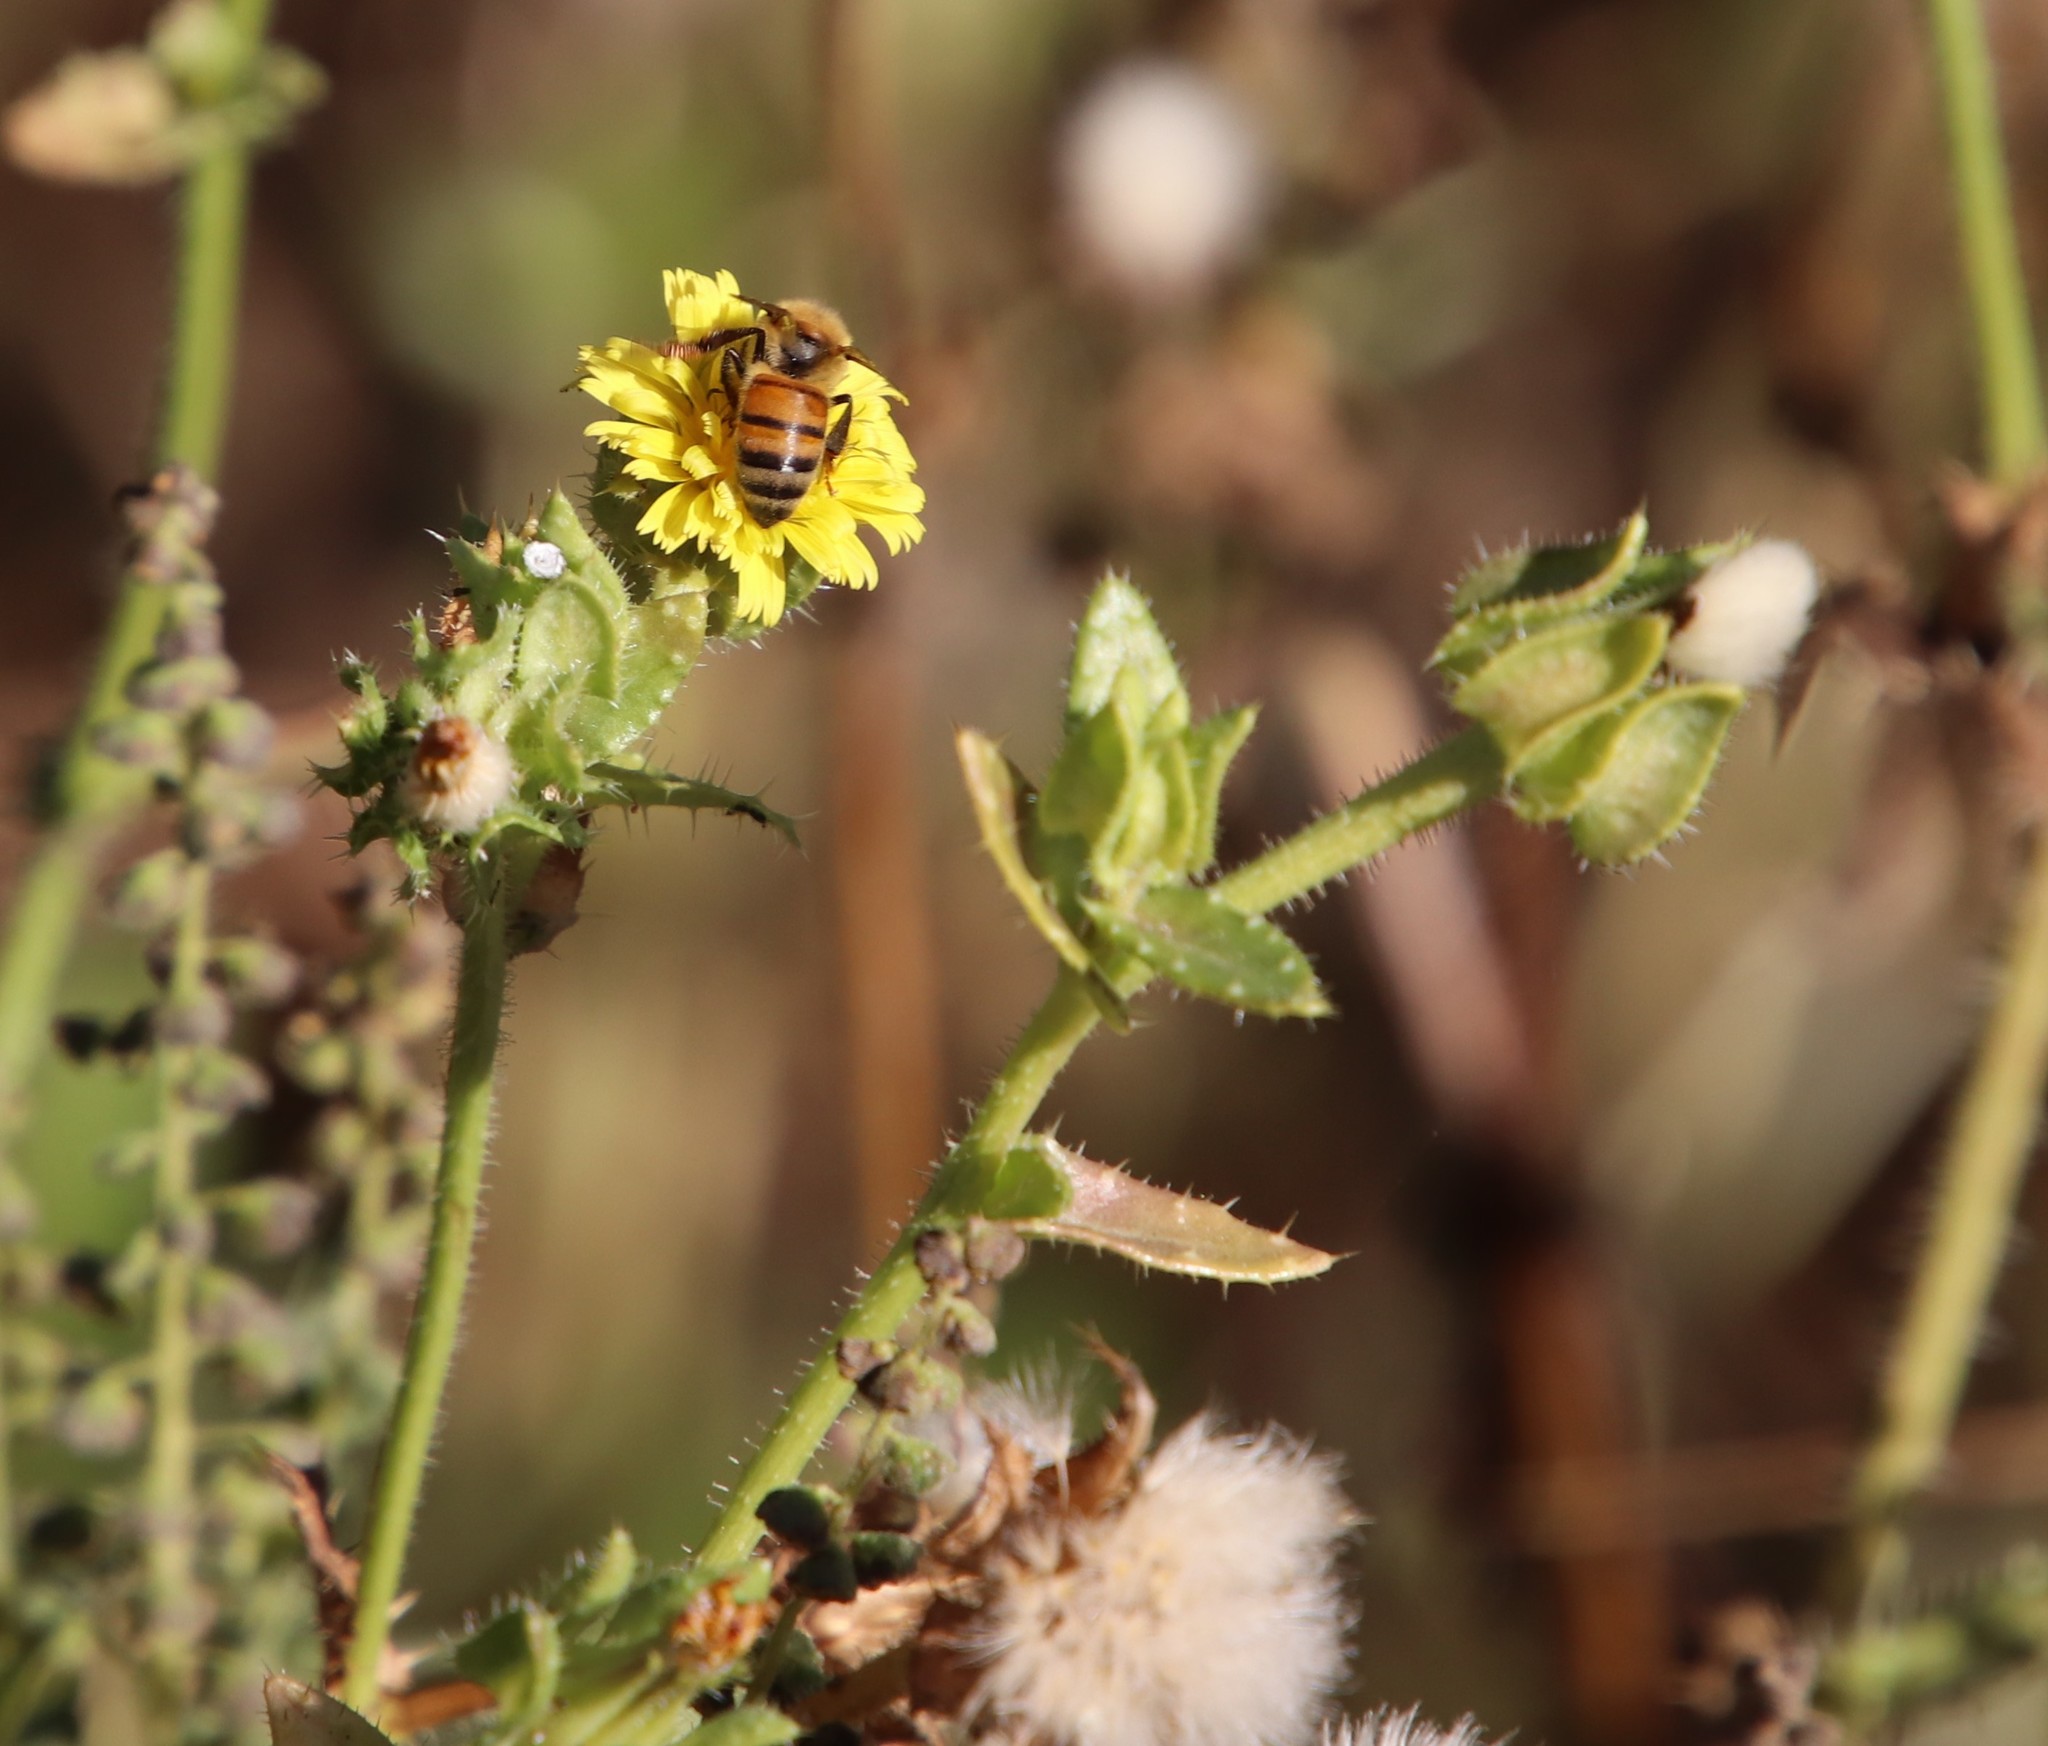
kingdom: Plantae
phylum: Tracheophyta
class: Magnoliopsida
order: Asterales
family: Asteraceae
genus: Helminthotheca
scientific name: Helminthotheca echioides
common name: Ox-tongue
